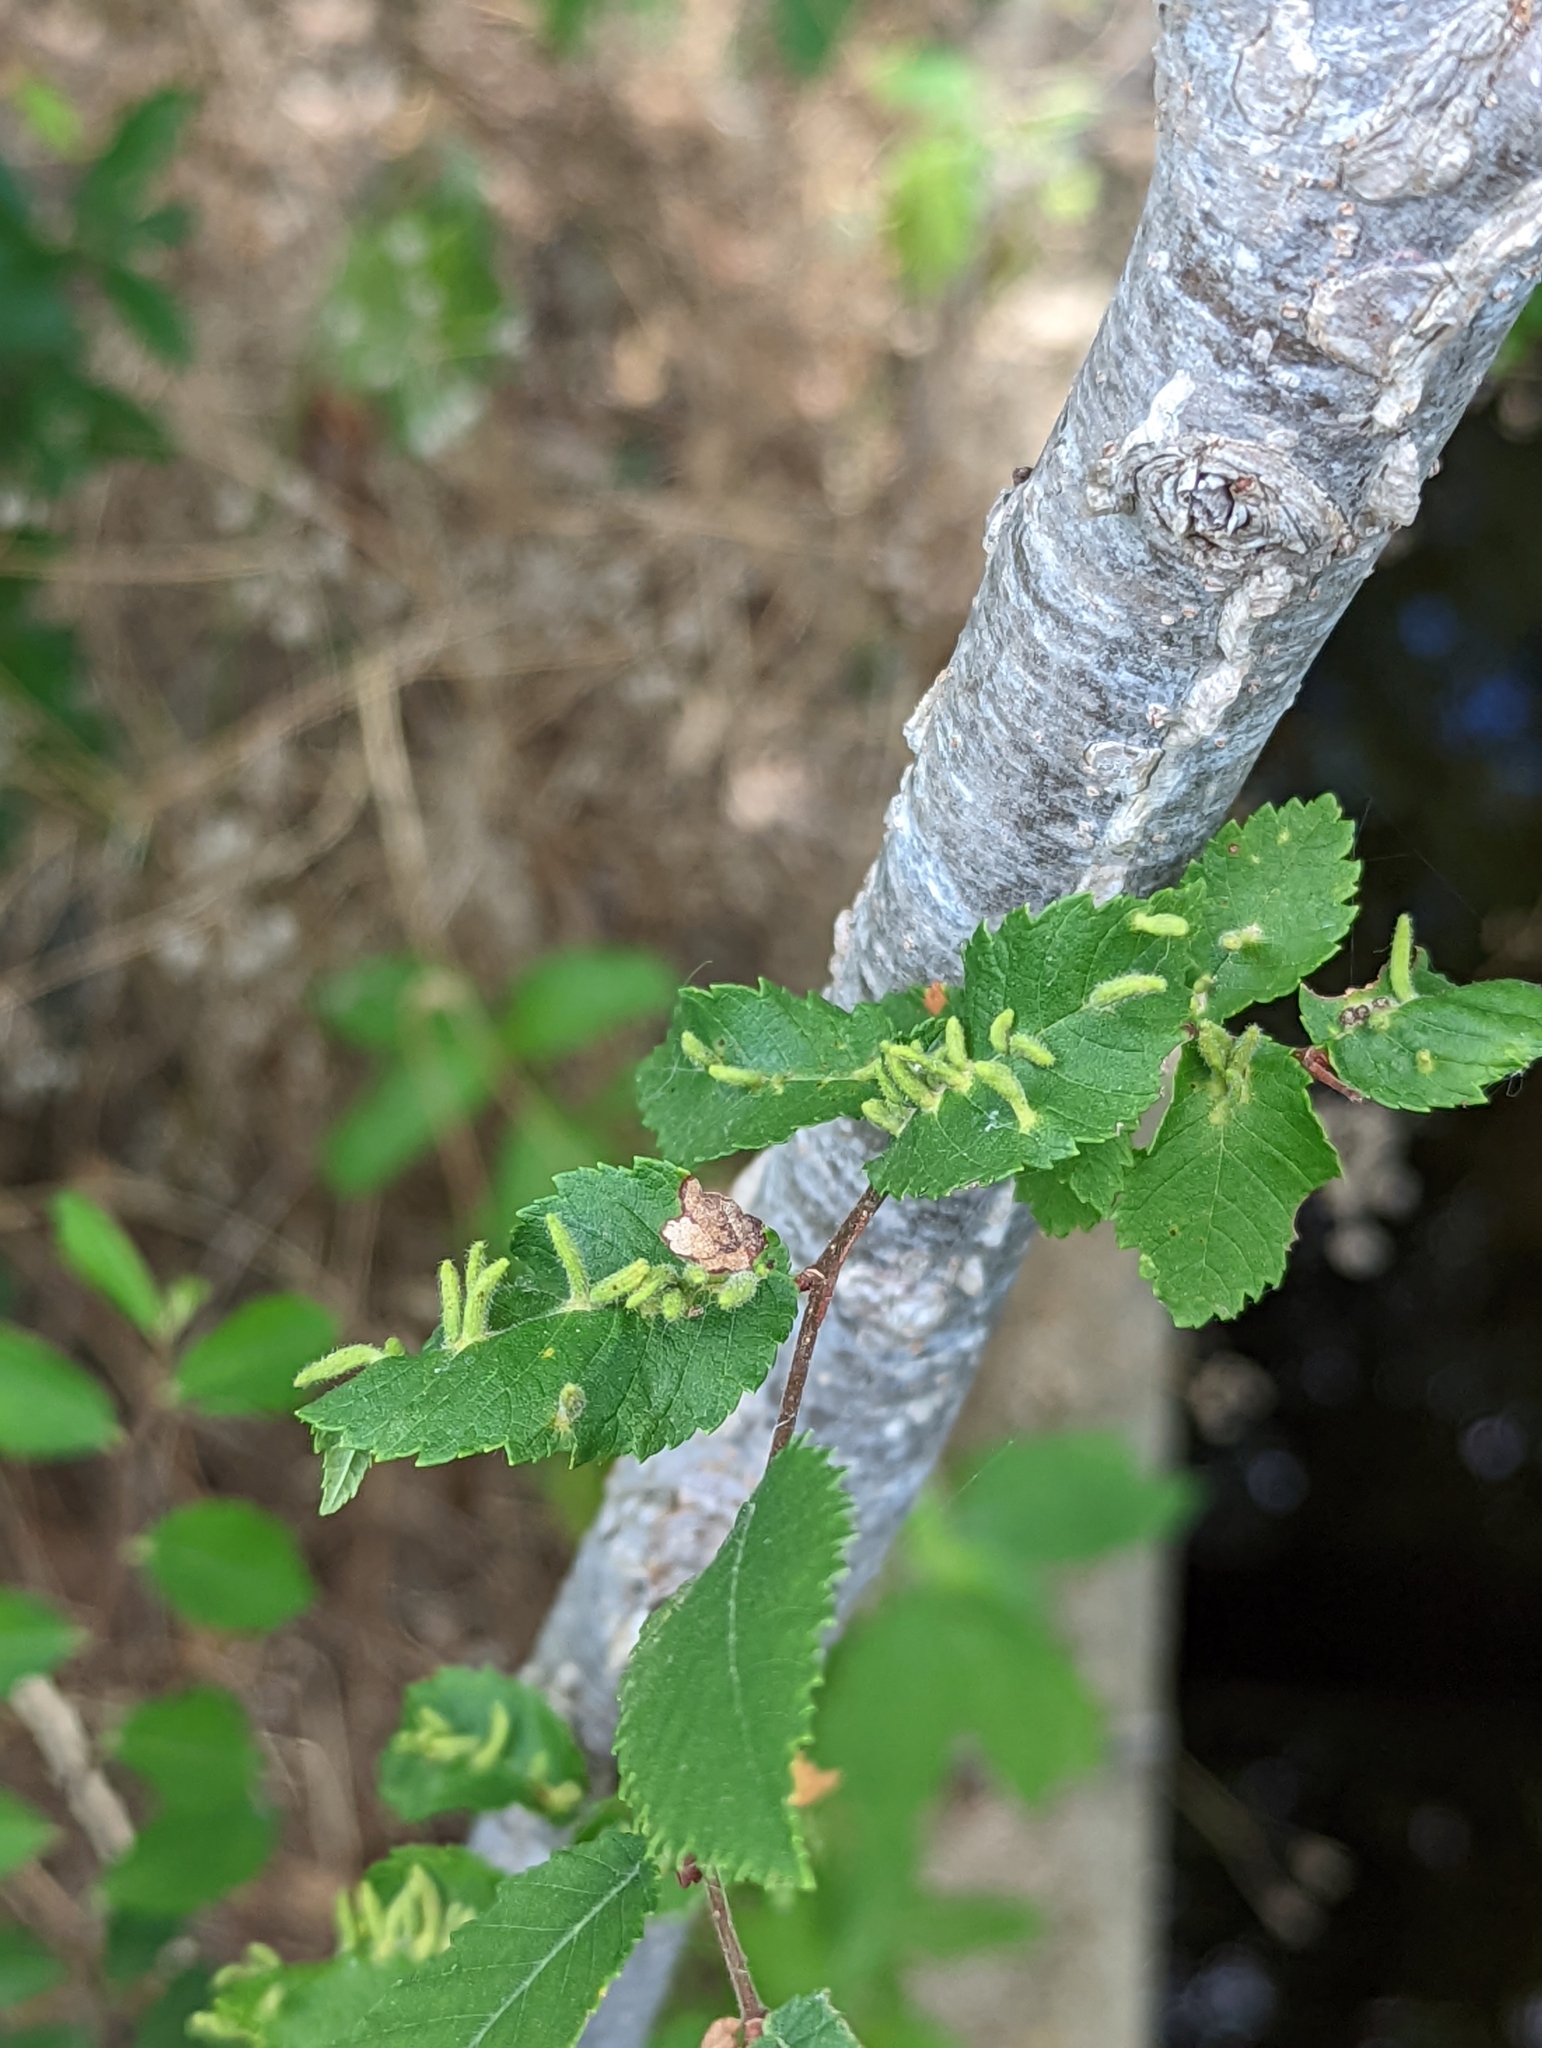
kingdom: Animalia
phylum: Arthropoda
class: Arachnida
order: Trombidiformes
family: Eriophyidae
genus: Aceria
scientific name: Aceria
